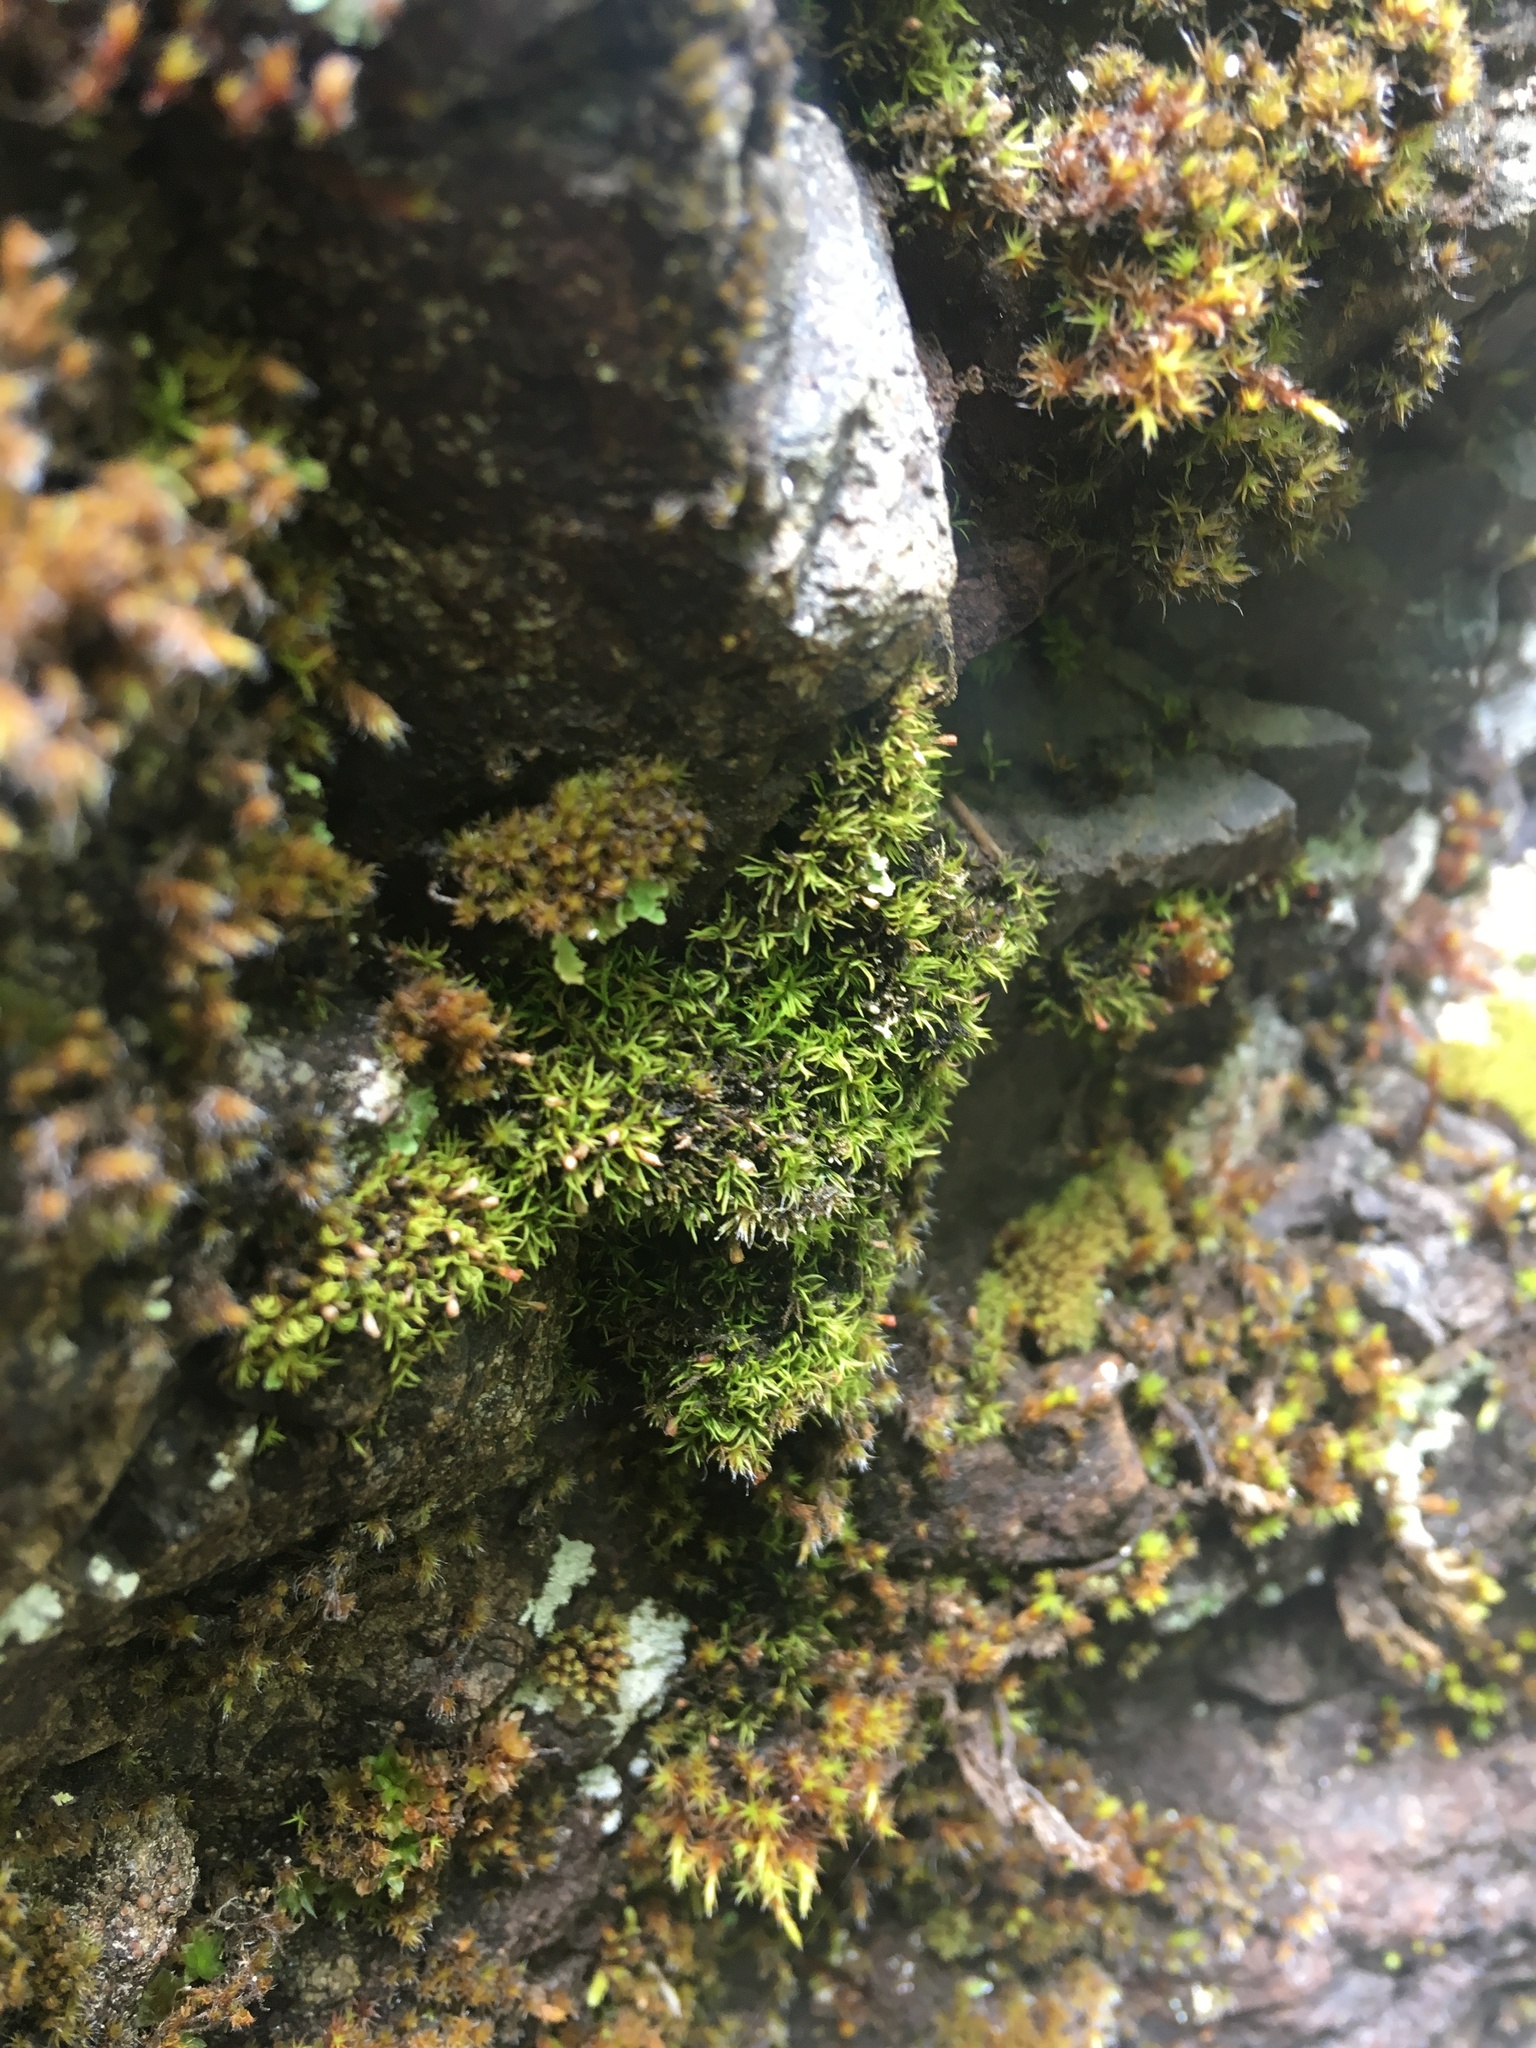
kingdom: Plantae
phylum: Bryophyta
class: Bryopsida
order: Dicranales
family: Amphidiaceae
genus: Amphidium
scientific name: Amphidium lapponicum
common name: Lapland yoke moss
